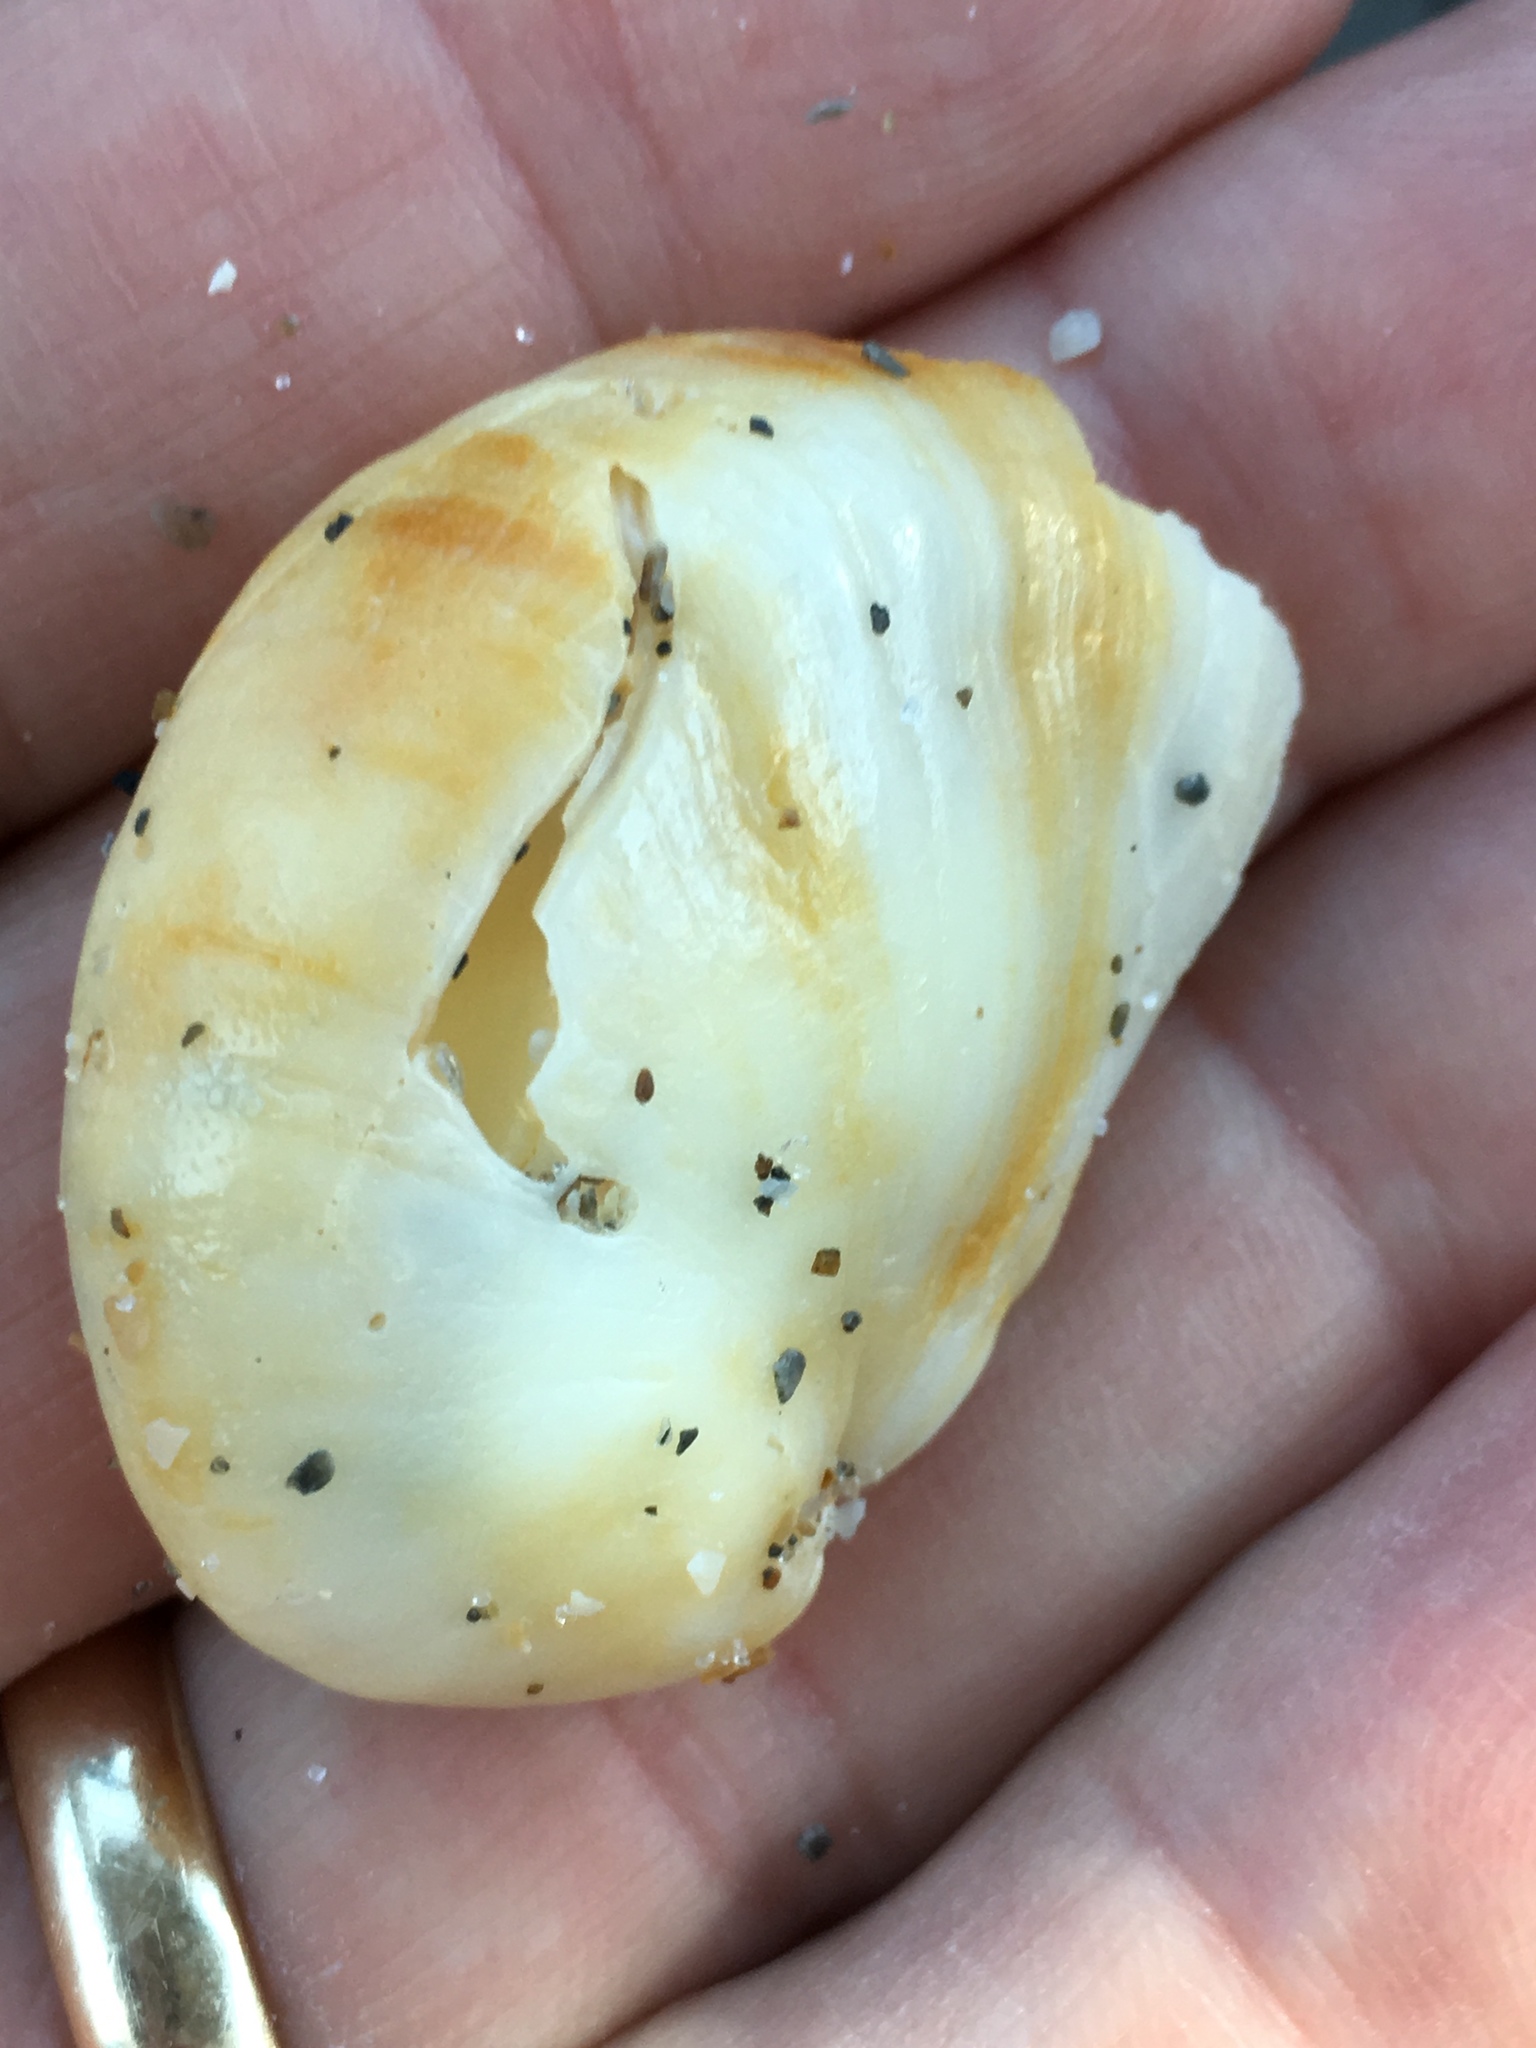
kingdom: Animalia
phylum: Mollusca
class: Gastropoda
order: Littorinimorpha
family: Calyptraeidae
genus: Crepidula
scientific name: Crepidula fornicata
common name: Slipper limpet
